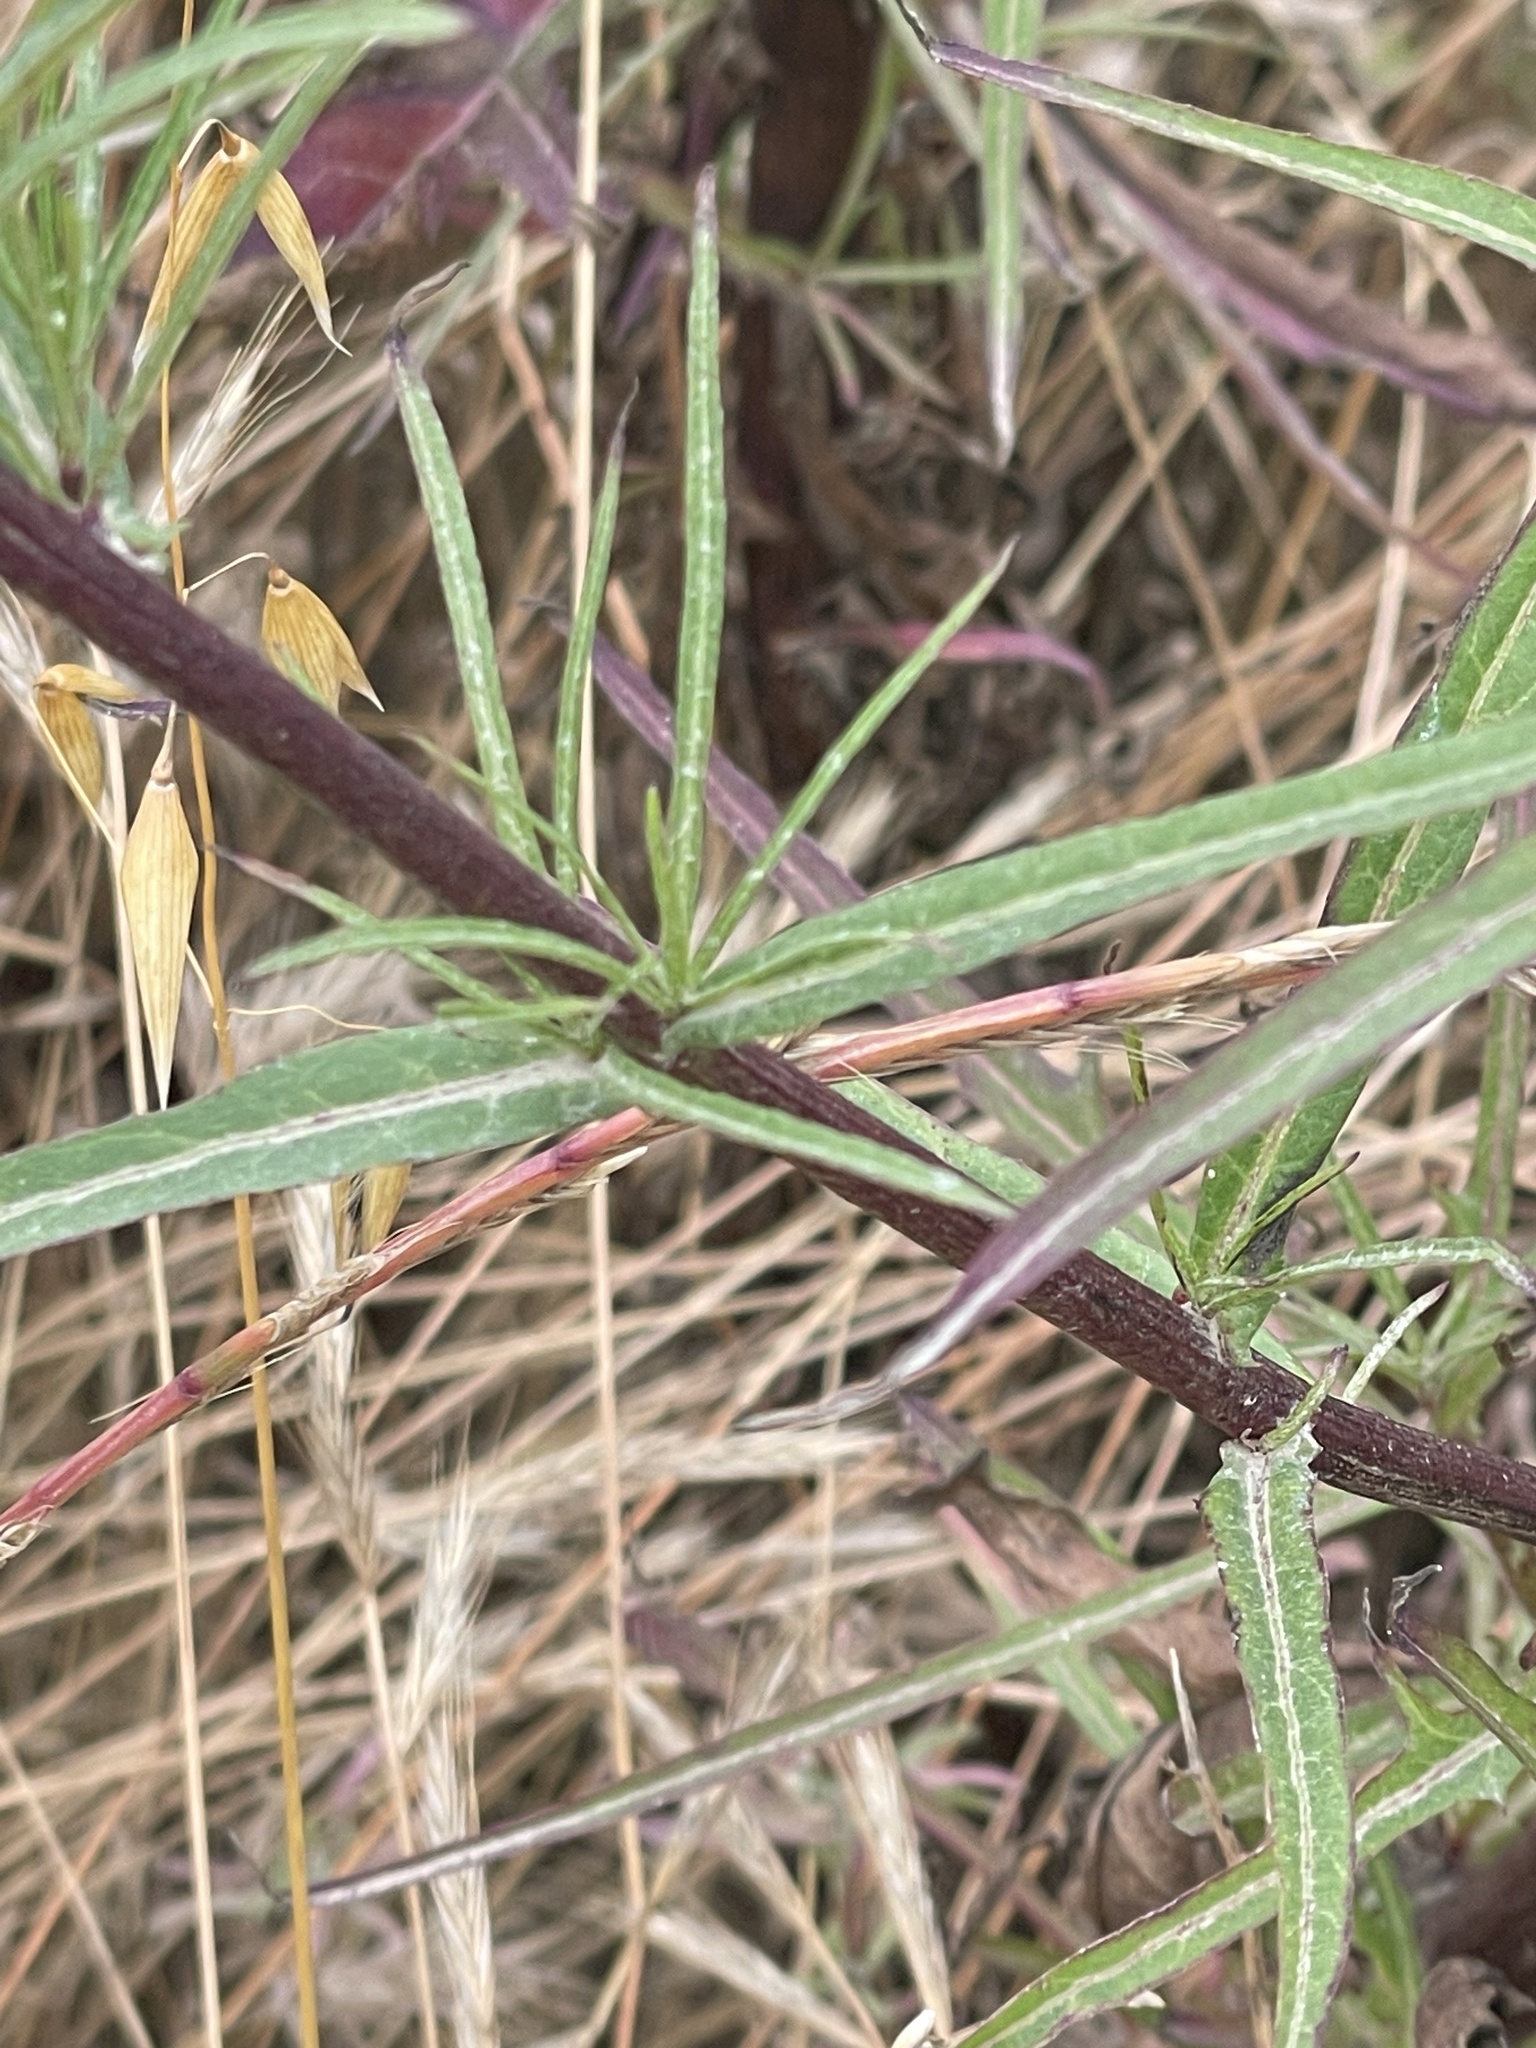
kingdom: Plantae
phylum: Tracheophyta
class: Magnoliopsida
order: Asterales
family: Asteraceae
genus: Malacothrix
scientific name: Malacothrix saxatilis
